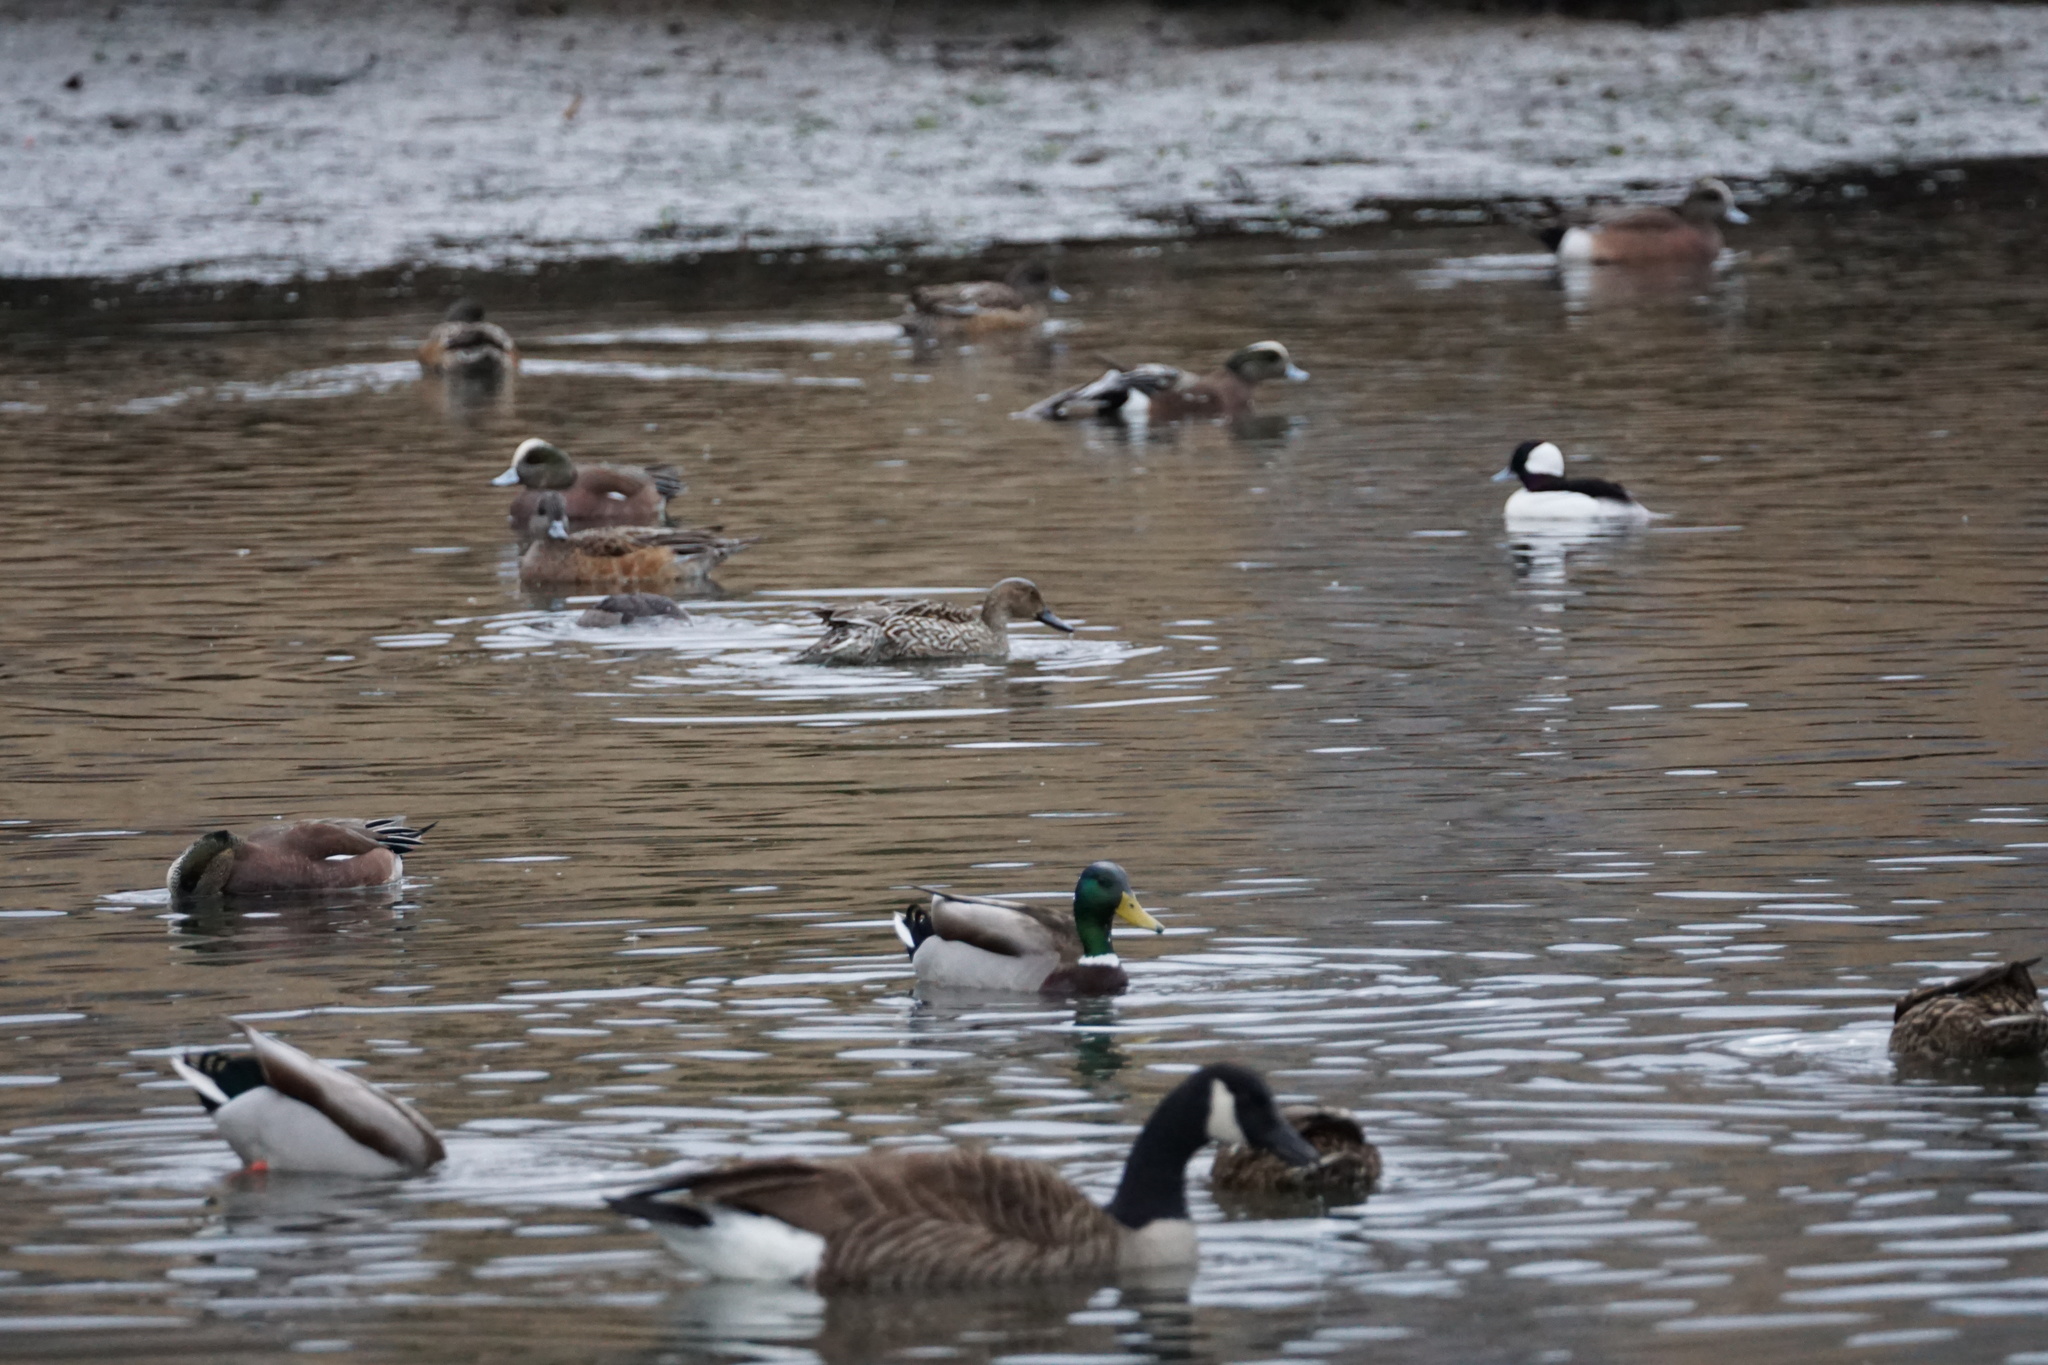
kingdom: Animalia
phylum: Chordata
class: Aves
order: Anseriformes
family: Anatidae
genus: Mareca
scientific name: Mareca americana
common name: American wigeon
